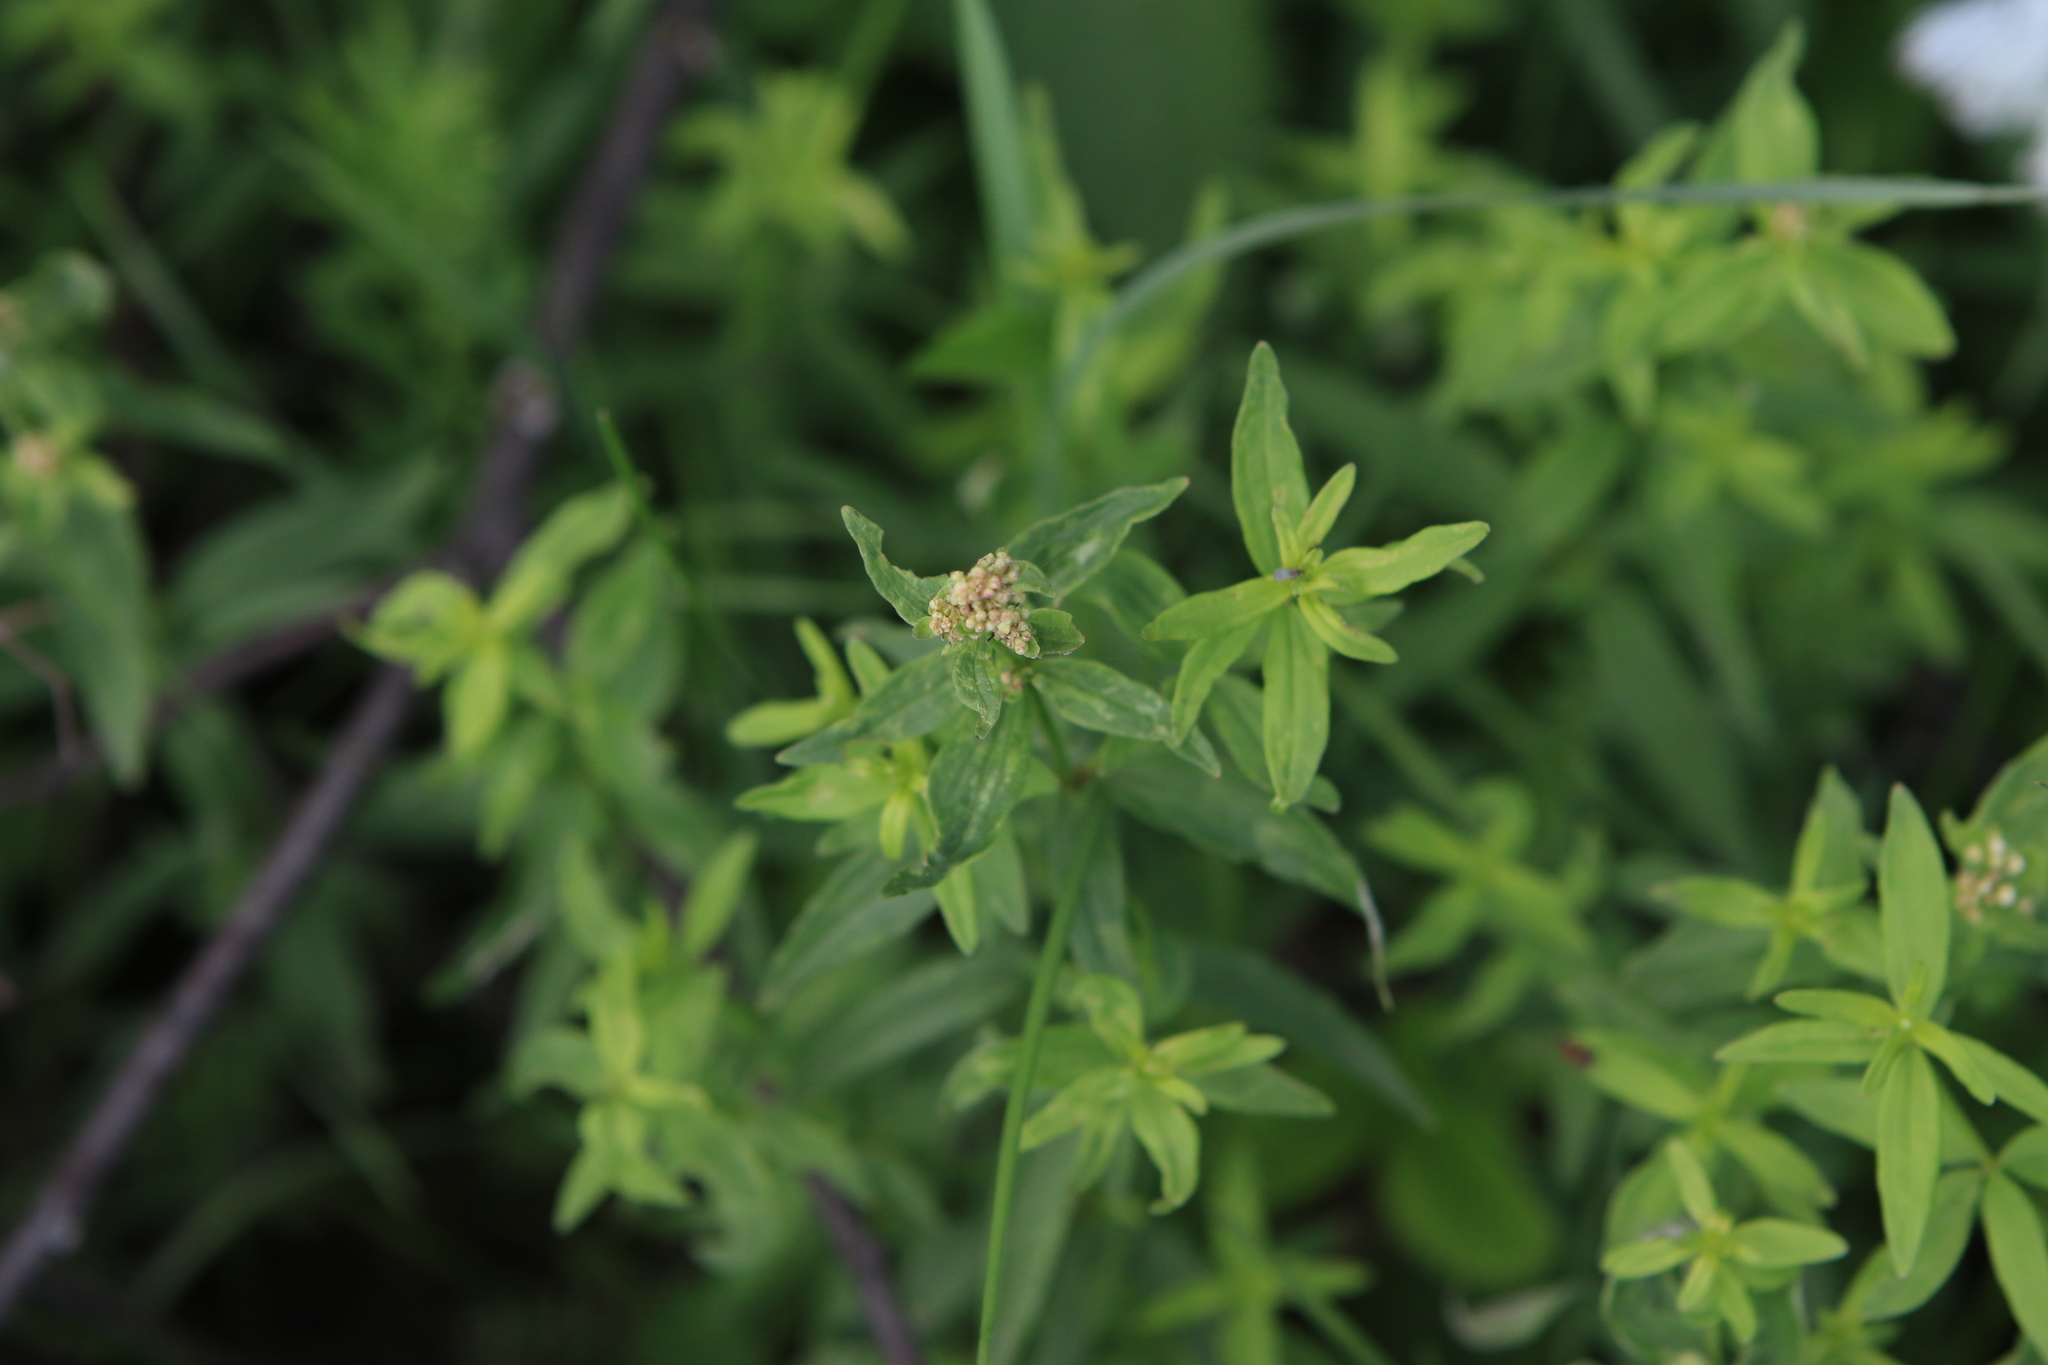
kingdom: Plantae
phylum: Tracheophyta
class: Magnoliopsida
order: Gentianales
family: Rubiaceae
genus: Galium
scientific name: Galium boreale
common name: Northern bedstraw
